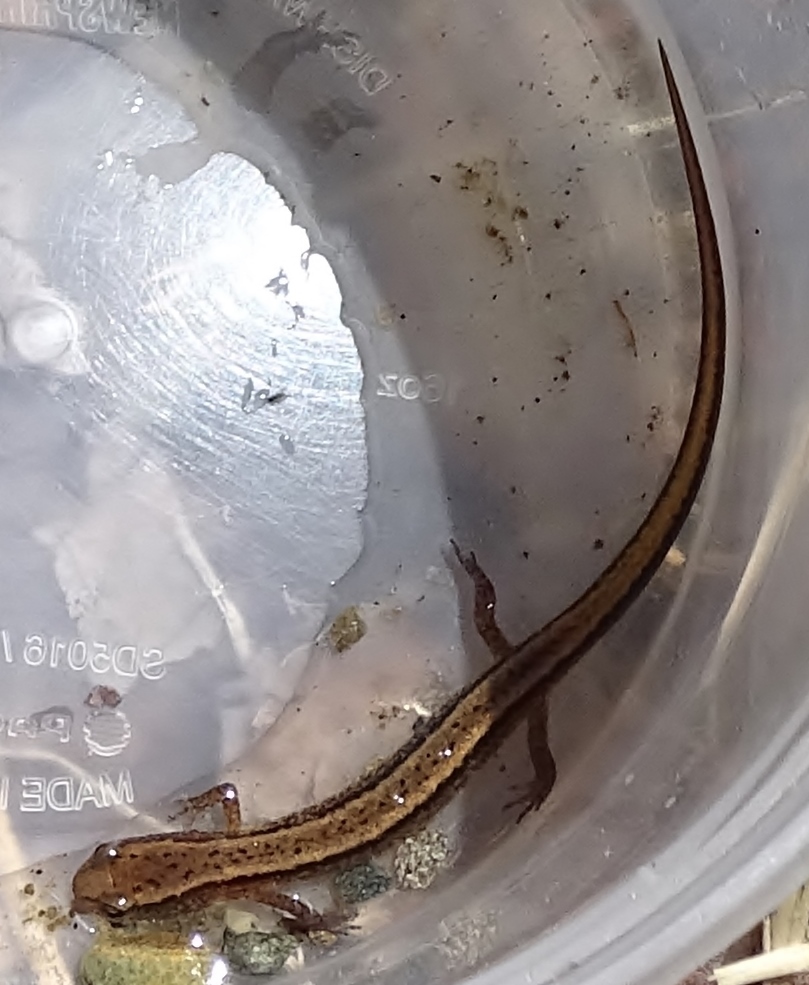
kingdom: Animalia
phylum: Chordata
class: Amphibia
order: Caudata
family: Plethodontidae
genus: Eurycea
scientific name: Eurycea bislineata
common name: Northern two-lined salamander
